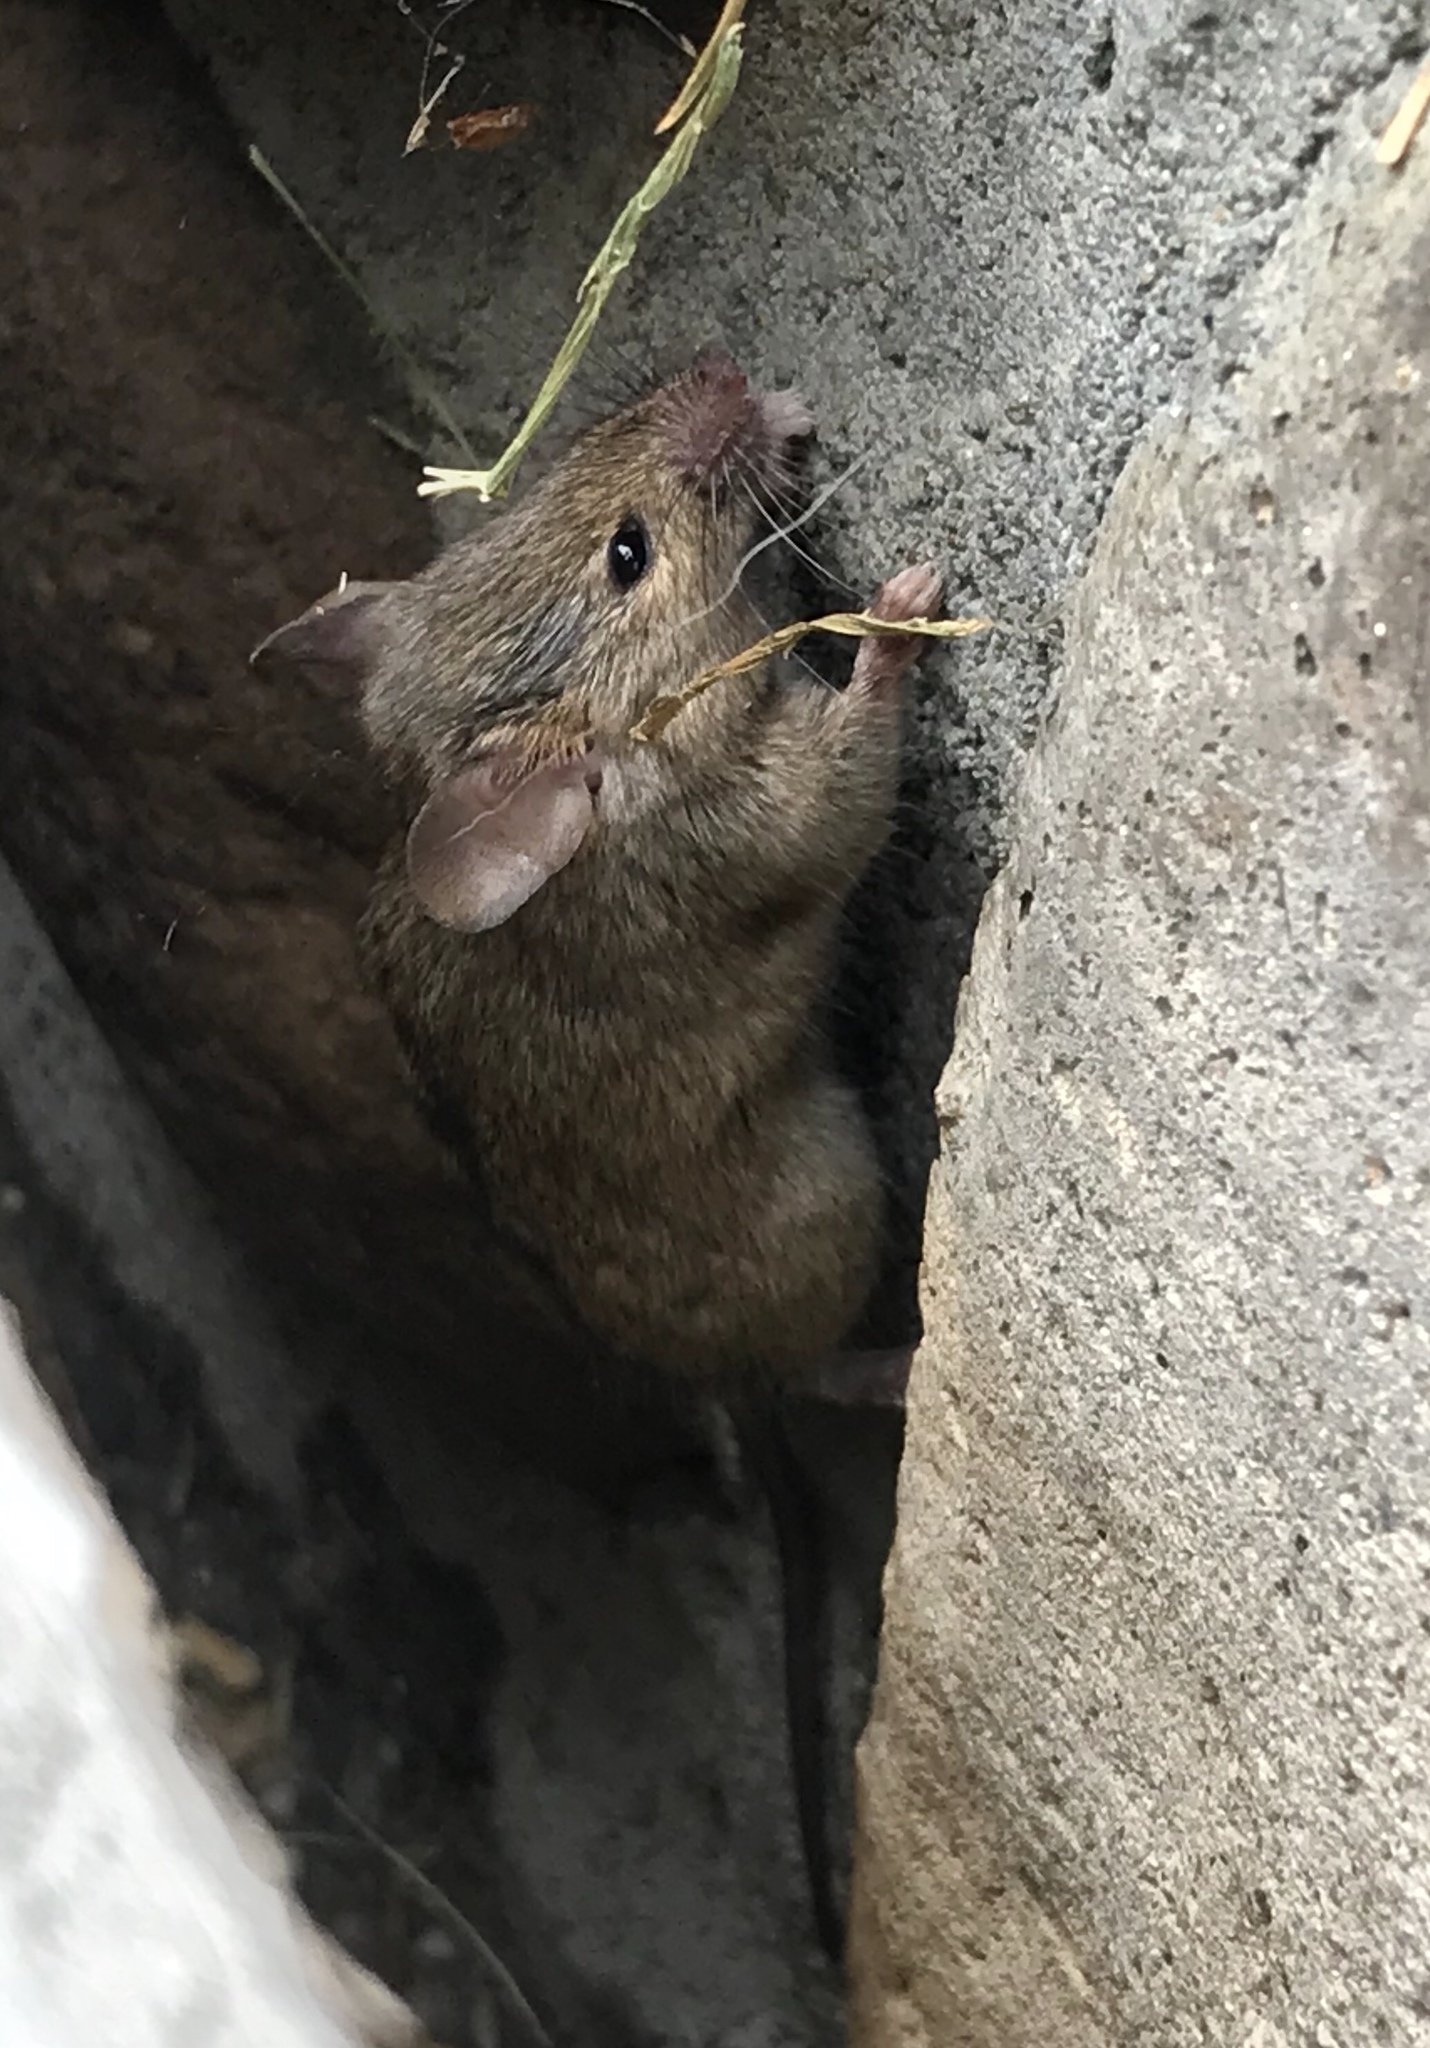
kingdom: Animalia
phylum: Chordata
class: Mammalia
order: Rodentia
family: Muridae
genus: Mus
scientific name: Mus musculus
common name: House mouse
